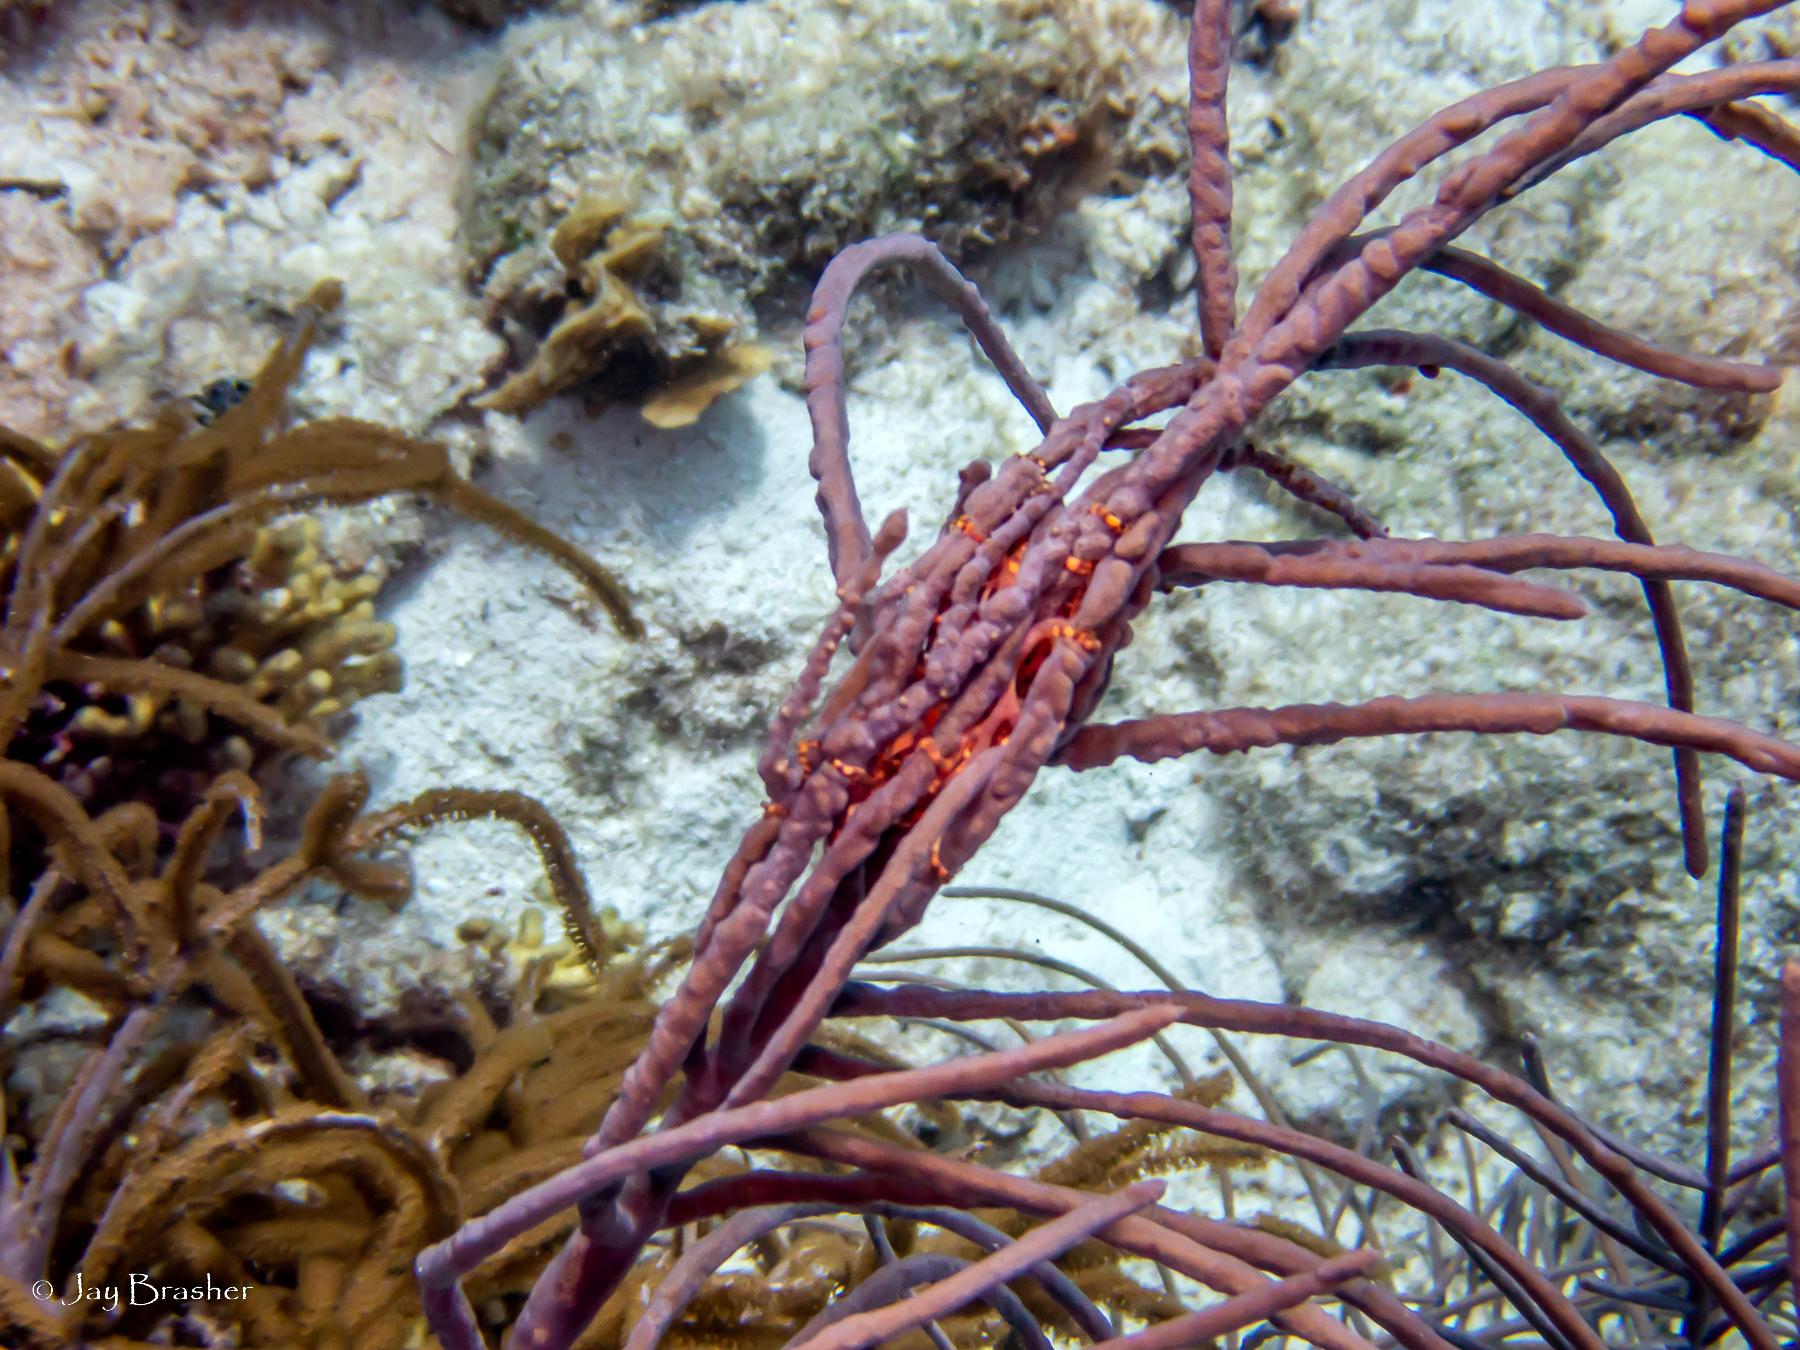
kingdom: Animalia
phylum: Echinodermata
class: Ophiuroidea
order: Euryalida
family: Gorgonocephalidae
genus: Astrophyton
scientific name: Astrophyton muricatum
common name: Basket starfish
